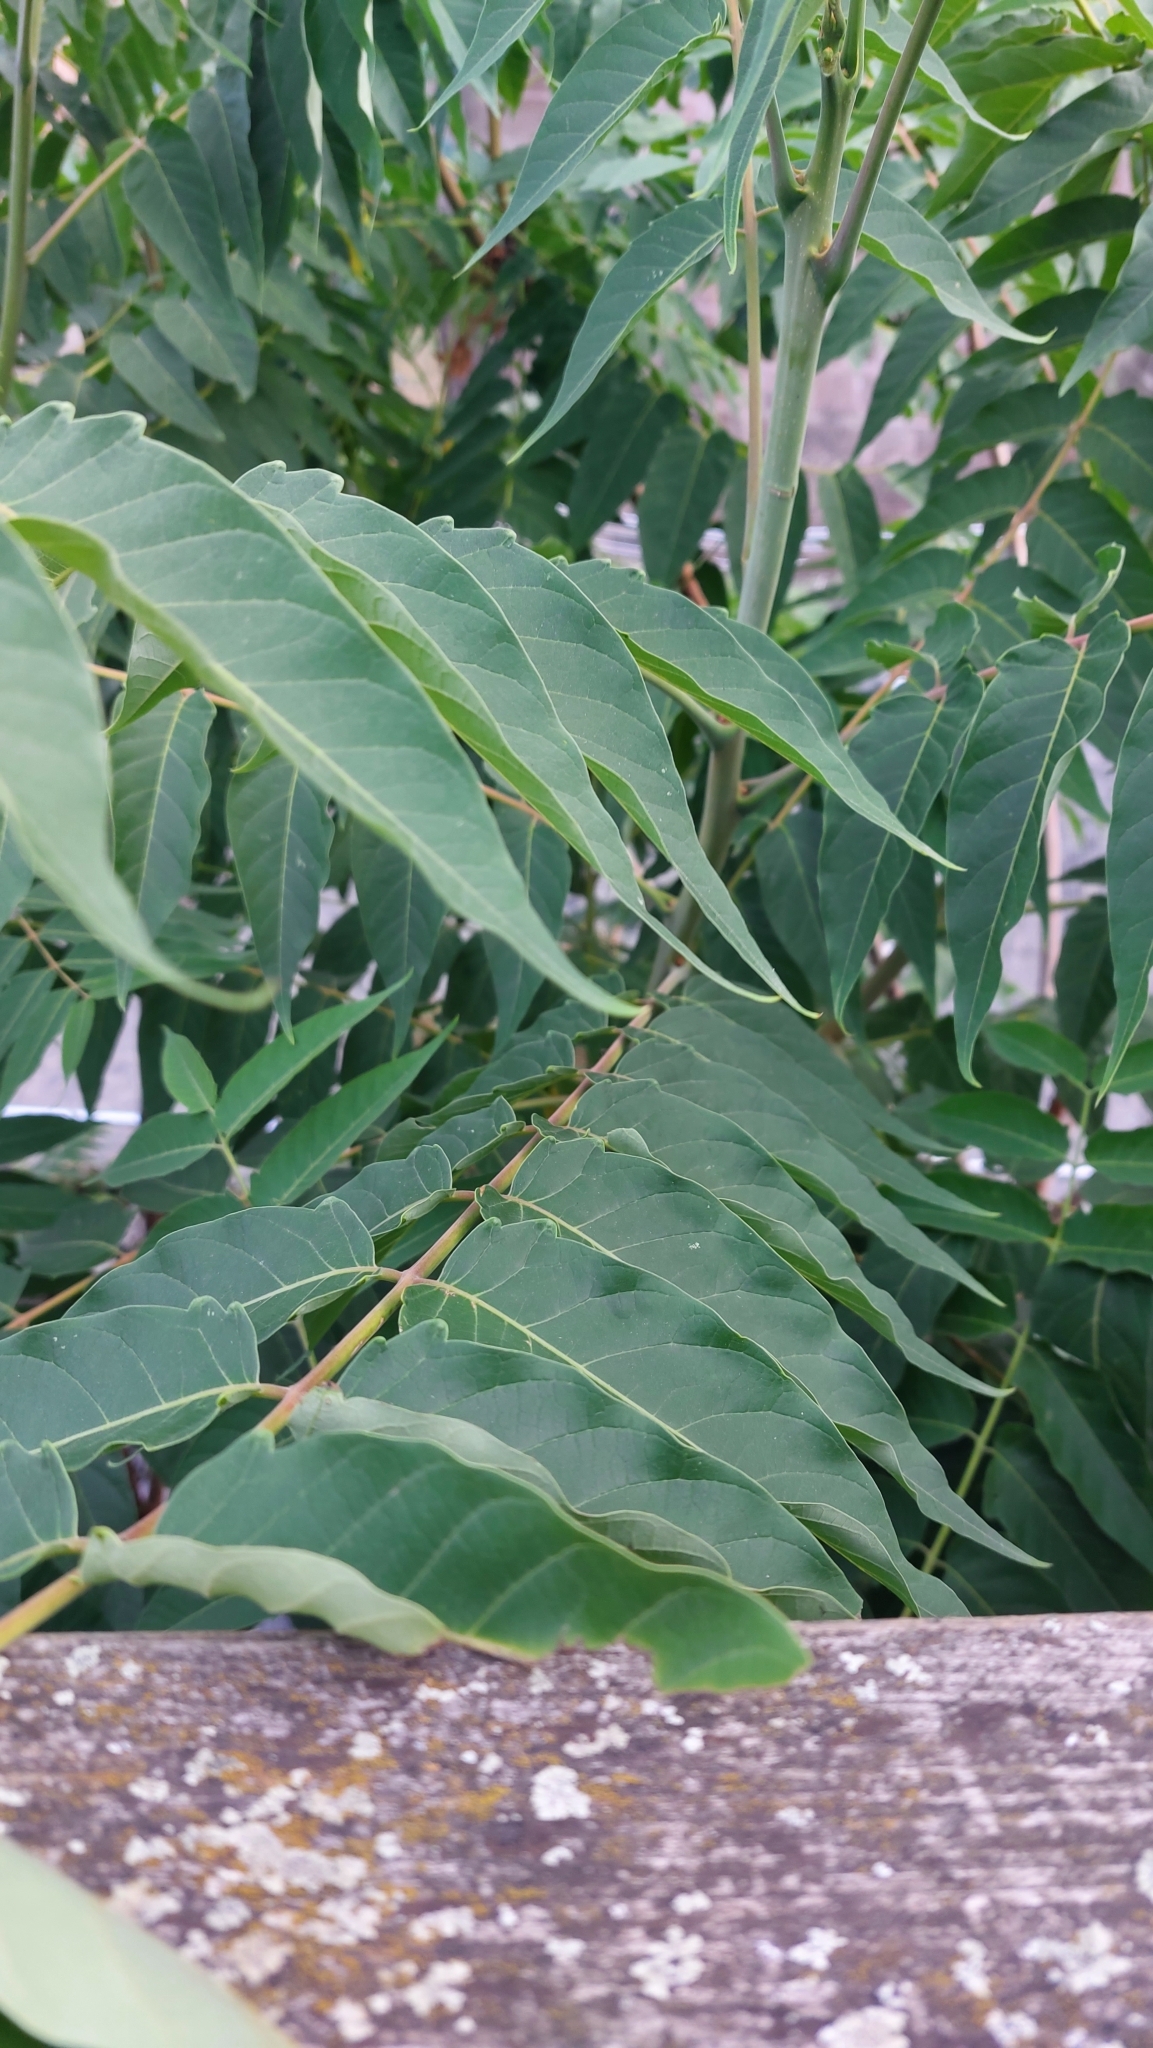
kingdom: Plantae
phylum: Tracheophyta
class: Magnoliopsida
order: Sapindales
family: Simaroubaceae
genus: Ailanthus
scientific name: Ailanthus altissima
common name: Tree-of-heaven
